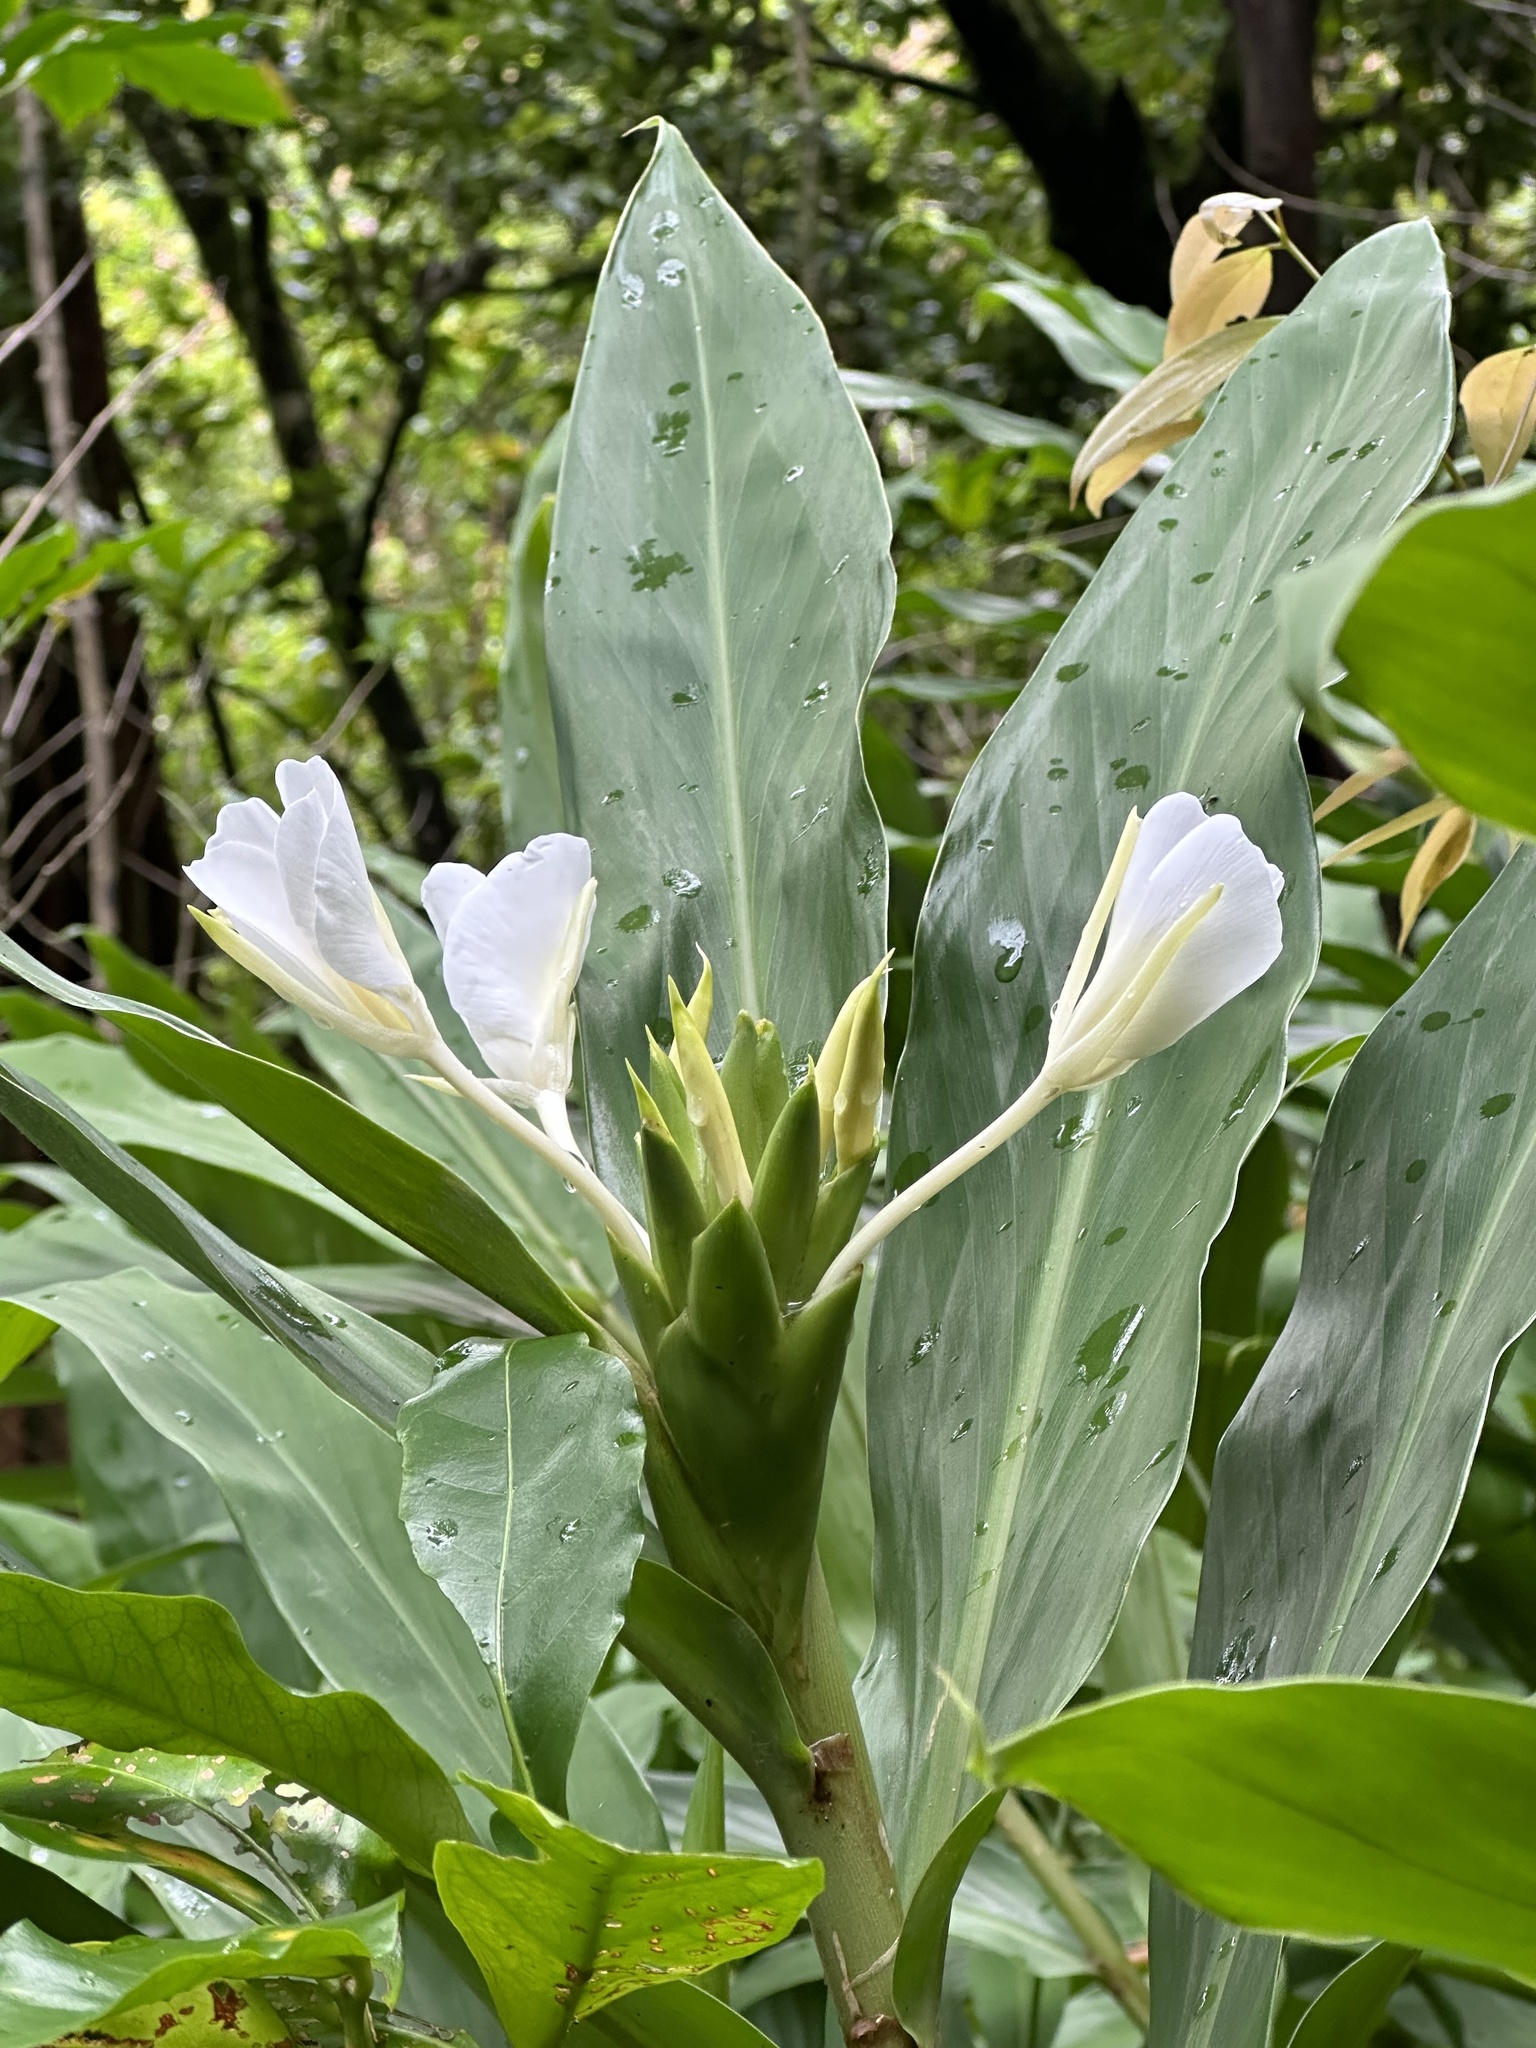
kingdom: Plantae
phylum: Tracheophyta
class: Liliopsida
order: Zingiberales
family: Zingiberaceae
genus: Hedychium
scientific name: Hedychium coronarium
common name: White garland-lily
